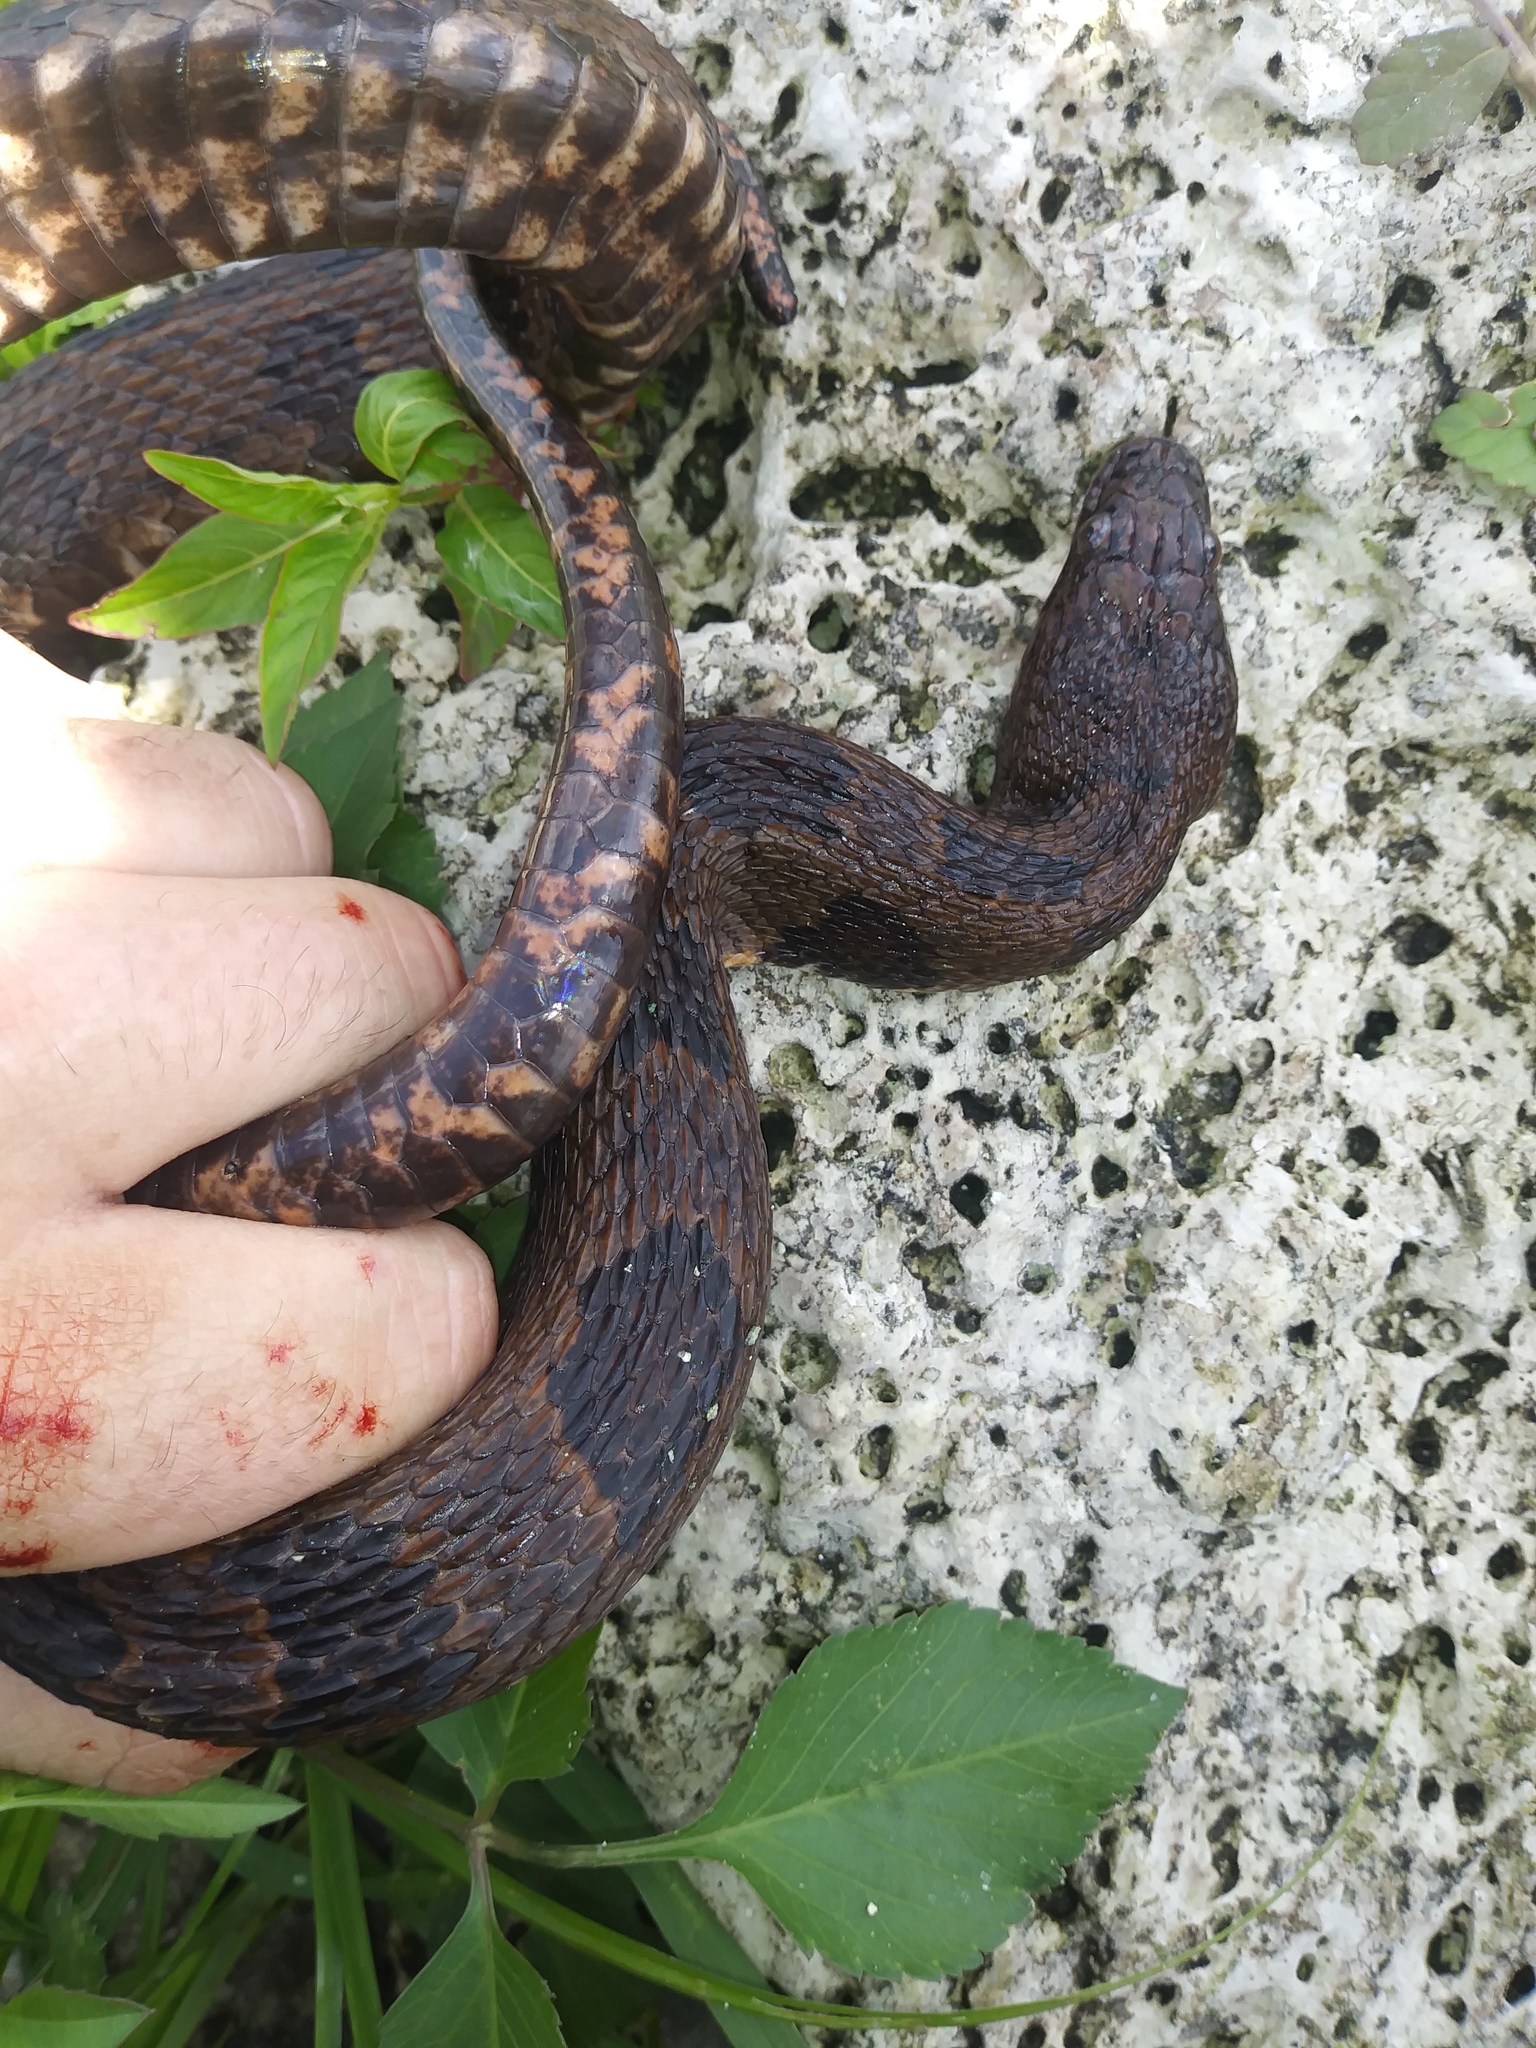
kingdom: Animalia
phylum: Chordata
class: Squamata
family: Colubridae
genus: Nerodia
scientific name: Nerodia taxispilota
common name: Brown water snake
